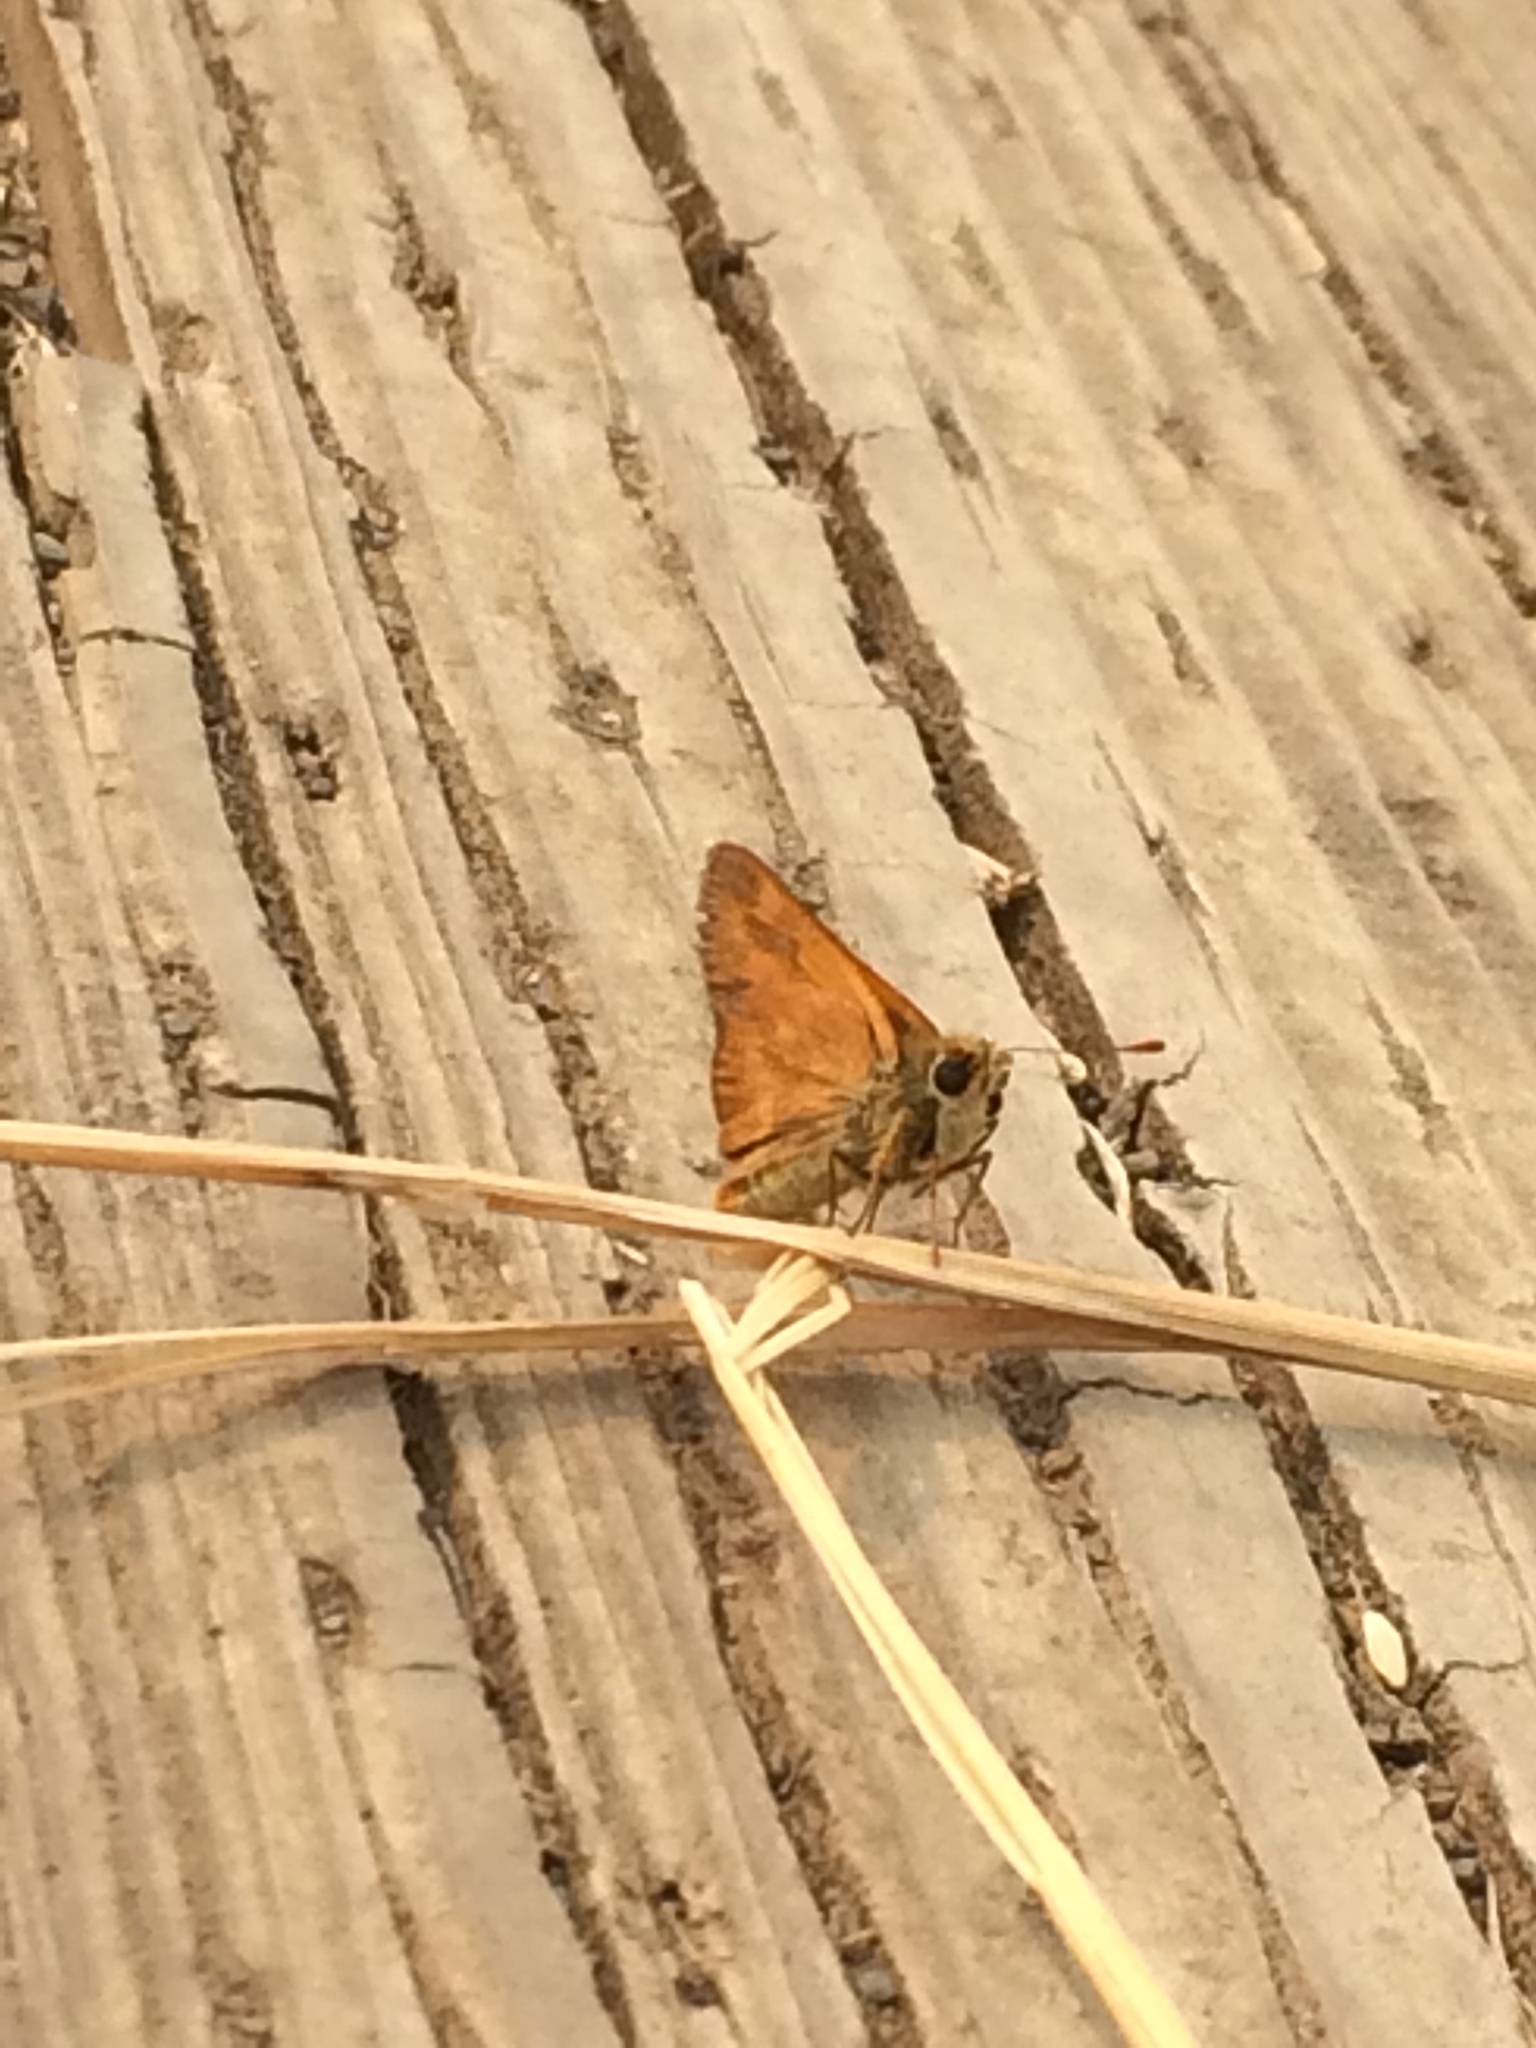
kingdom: Animalia
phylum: Arthropoda
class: Insecta
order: Lepidoptera
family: Hesperiidae
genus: Ochlodes
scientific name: Ochlodes sylvanoides
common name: Woodland skipper
